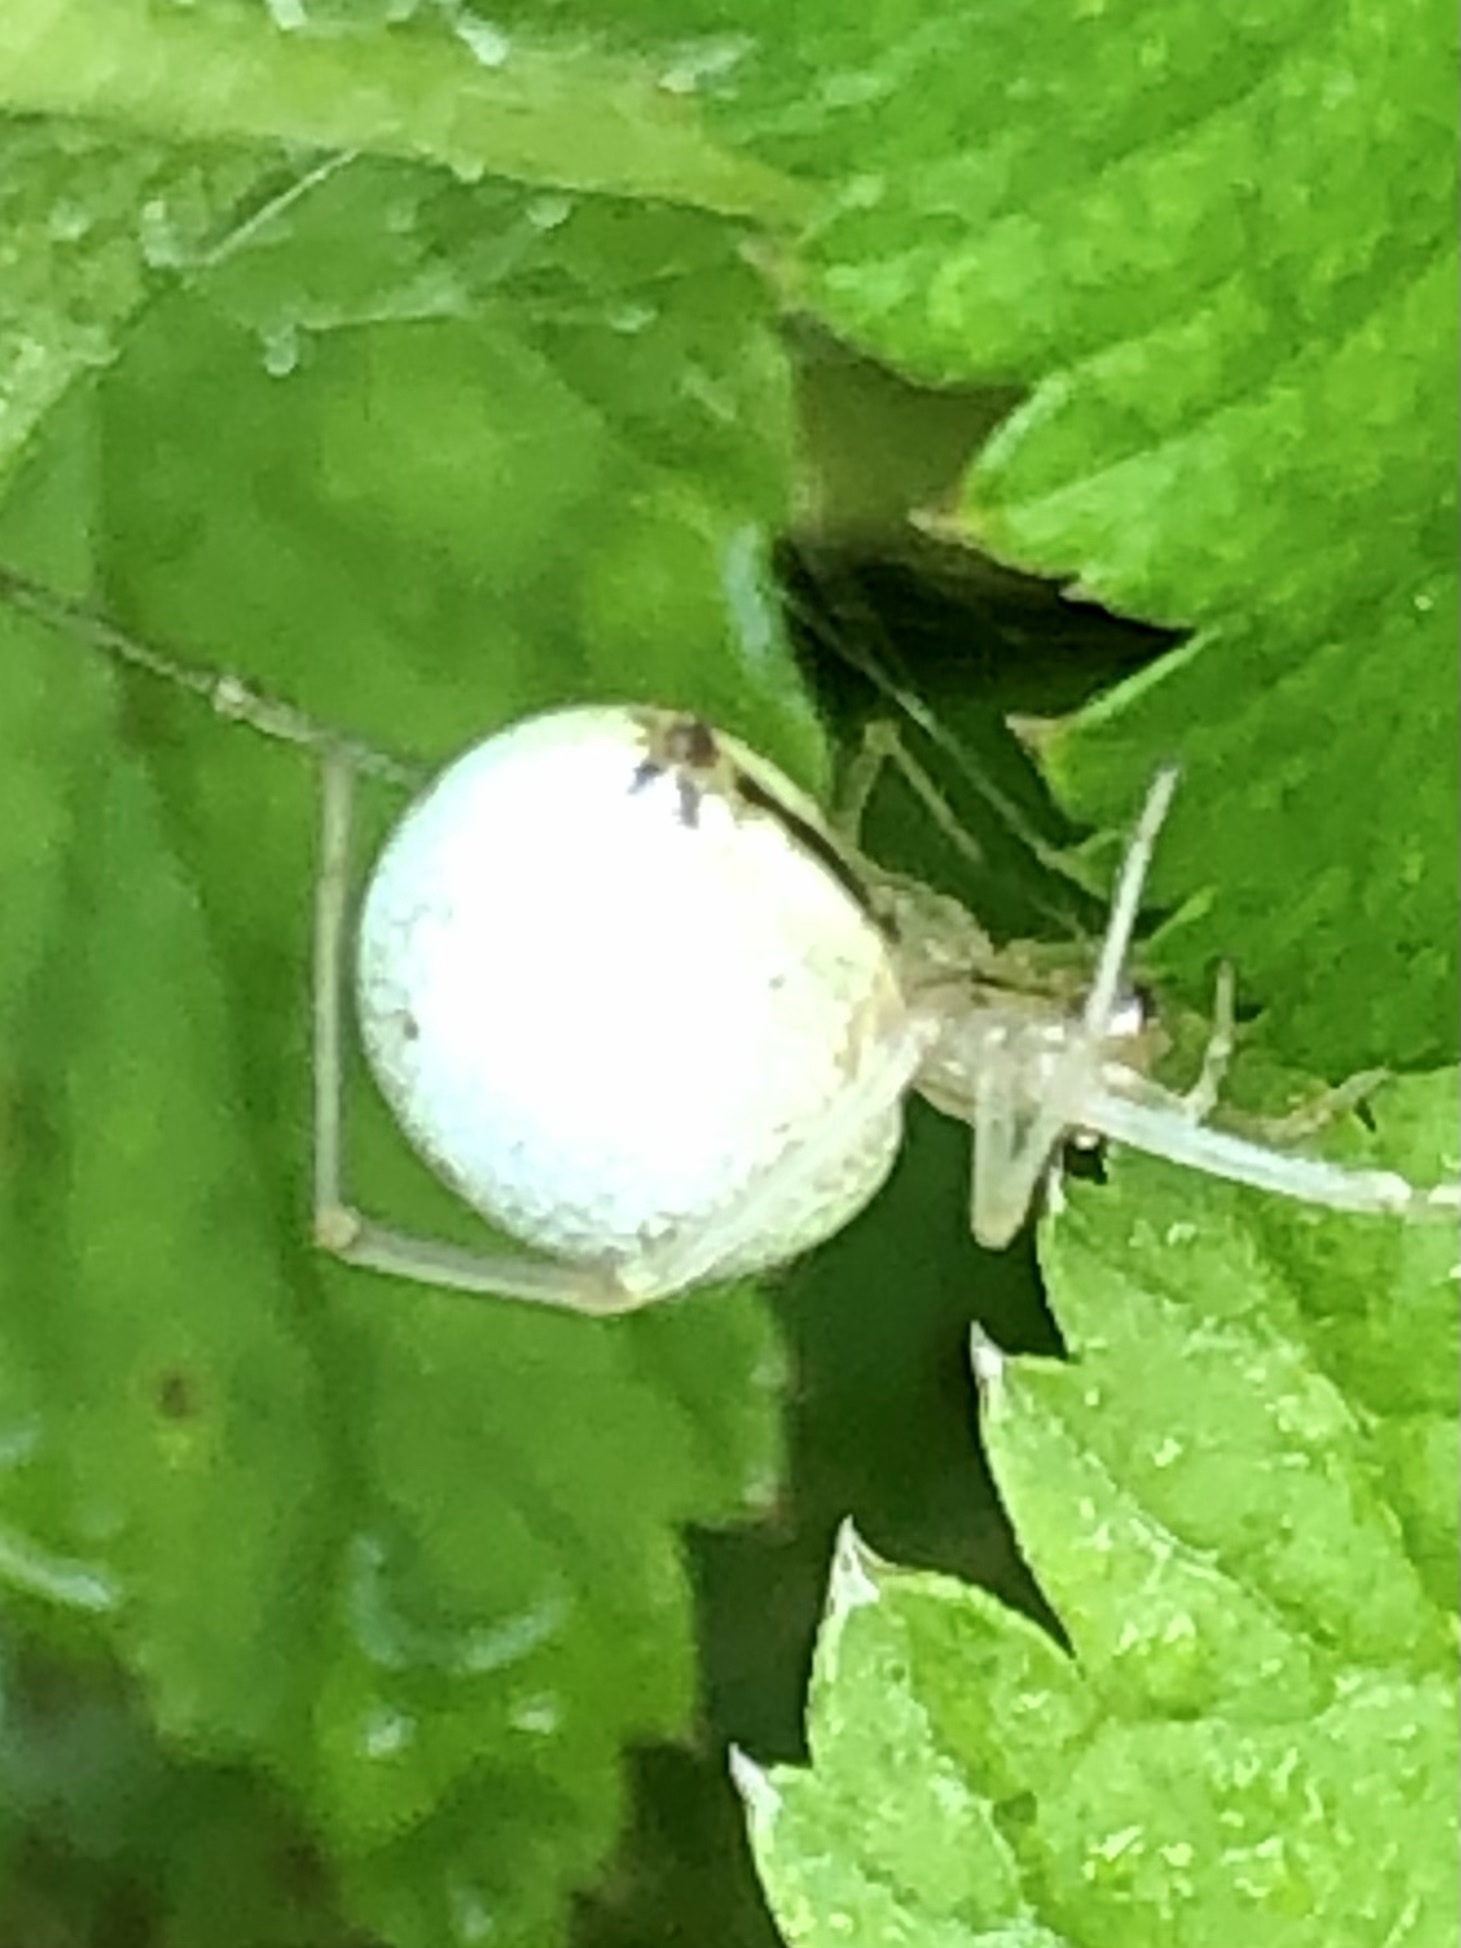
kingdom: Animalia
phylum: Arthropoda
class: Arachnida
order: Araneae
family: Theridiidae
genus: Enoplognatha
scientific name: Enoplognatha ovata
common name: Common candy-striped spider
